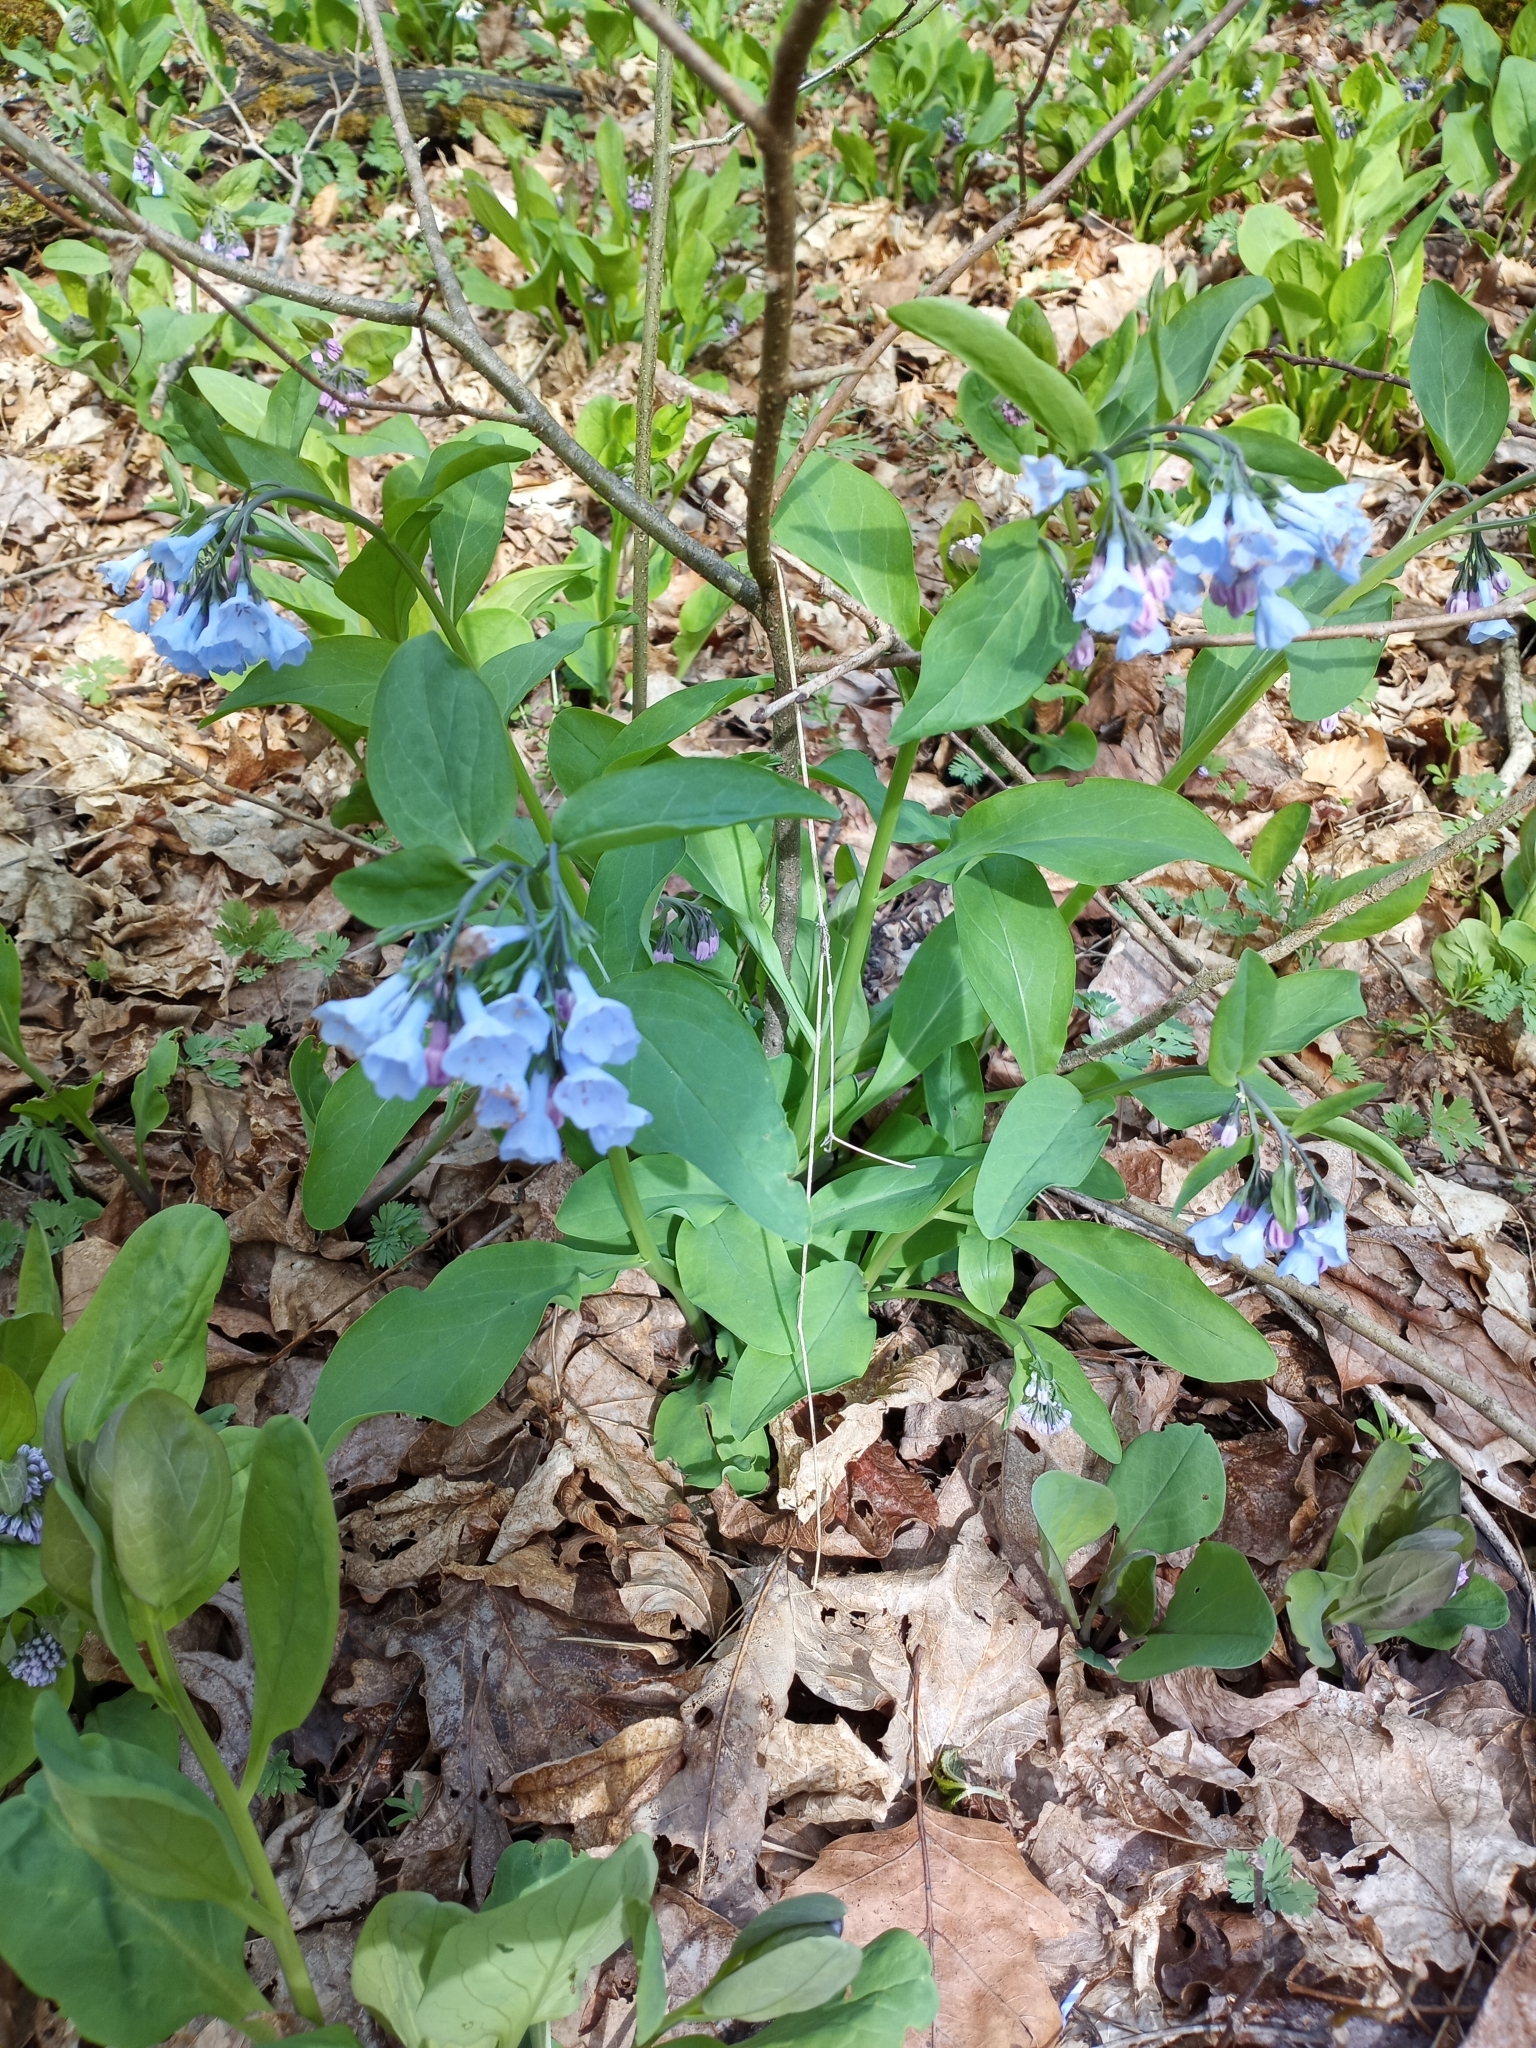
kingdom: Plantae
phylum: Tracheophyta
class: Magnoliopsida
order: Boraginales
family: Boraginaceae
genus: Mertensia
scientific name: Mertensia virginica
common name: Virginia bluebells
